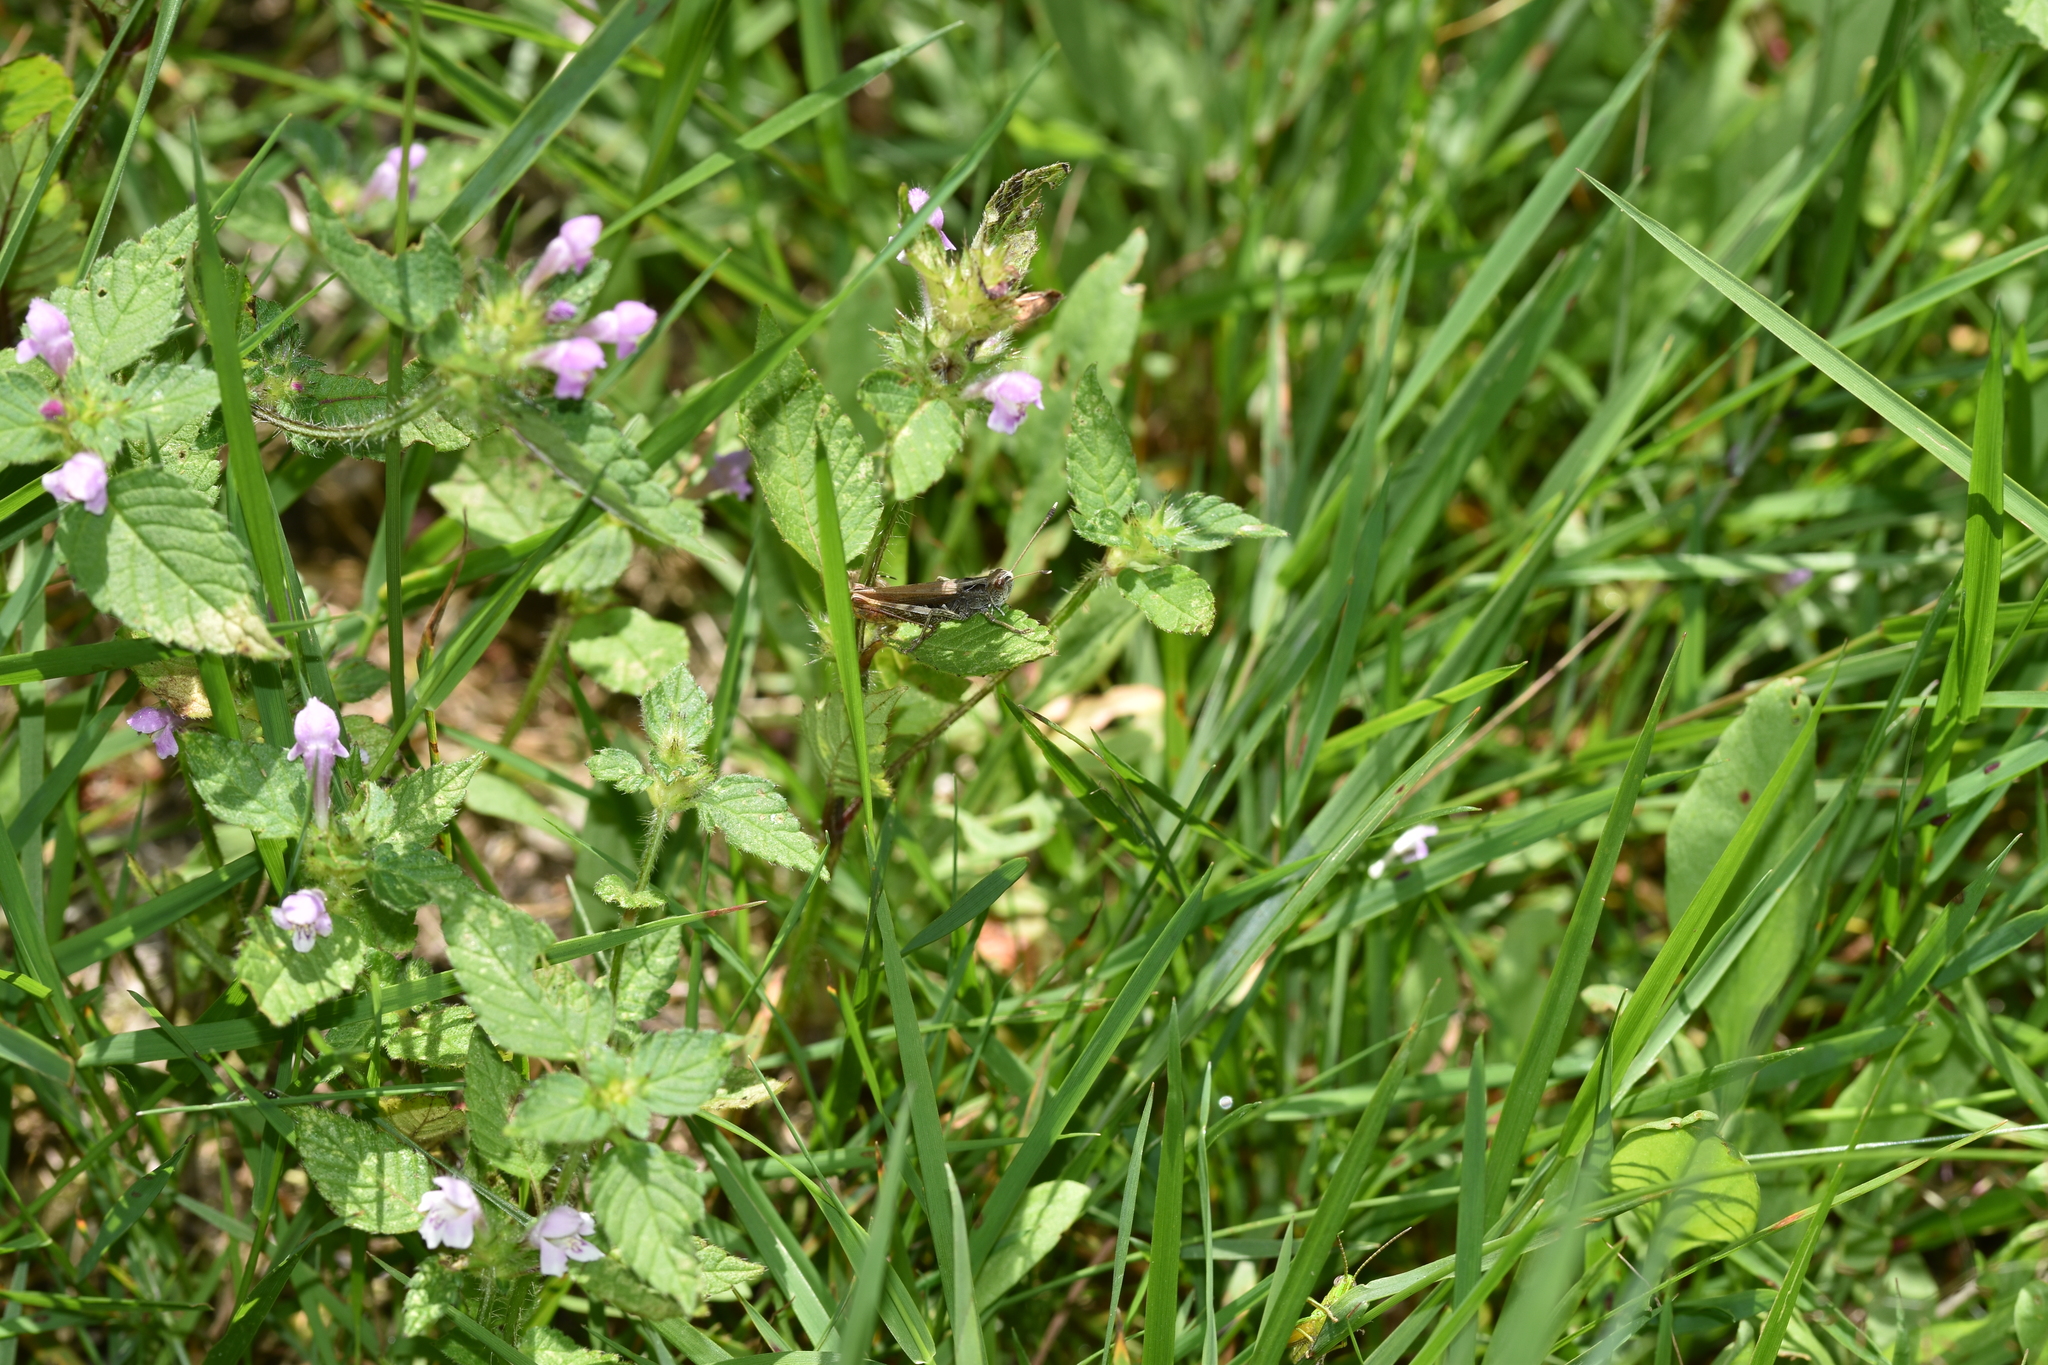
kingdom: Animalia
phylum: Arthropoda
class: Insecta
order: Orthoptera
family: Acrididae
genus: Gomphocerippus
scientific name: Gomphocerippus rufus
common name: Rufous grasshopper
